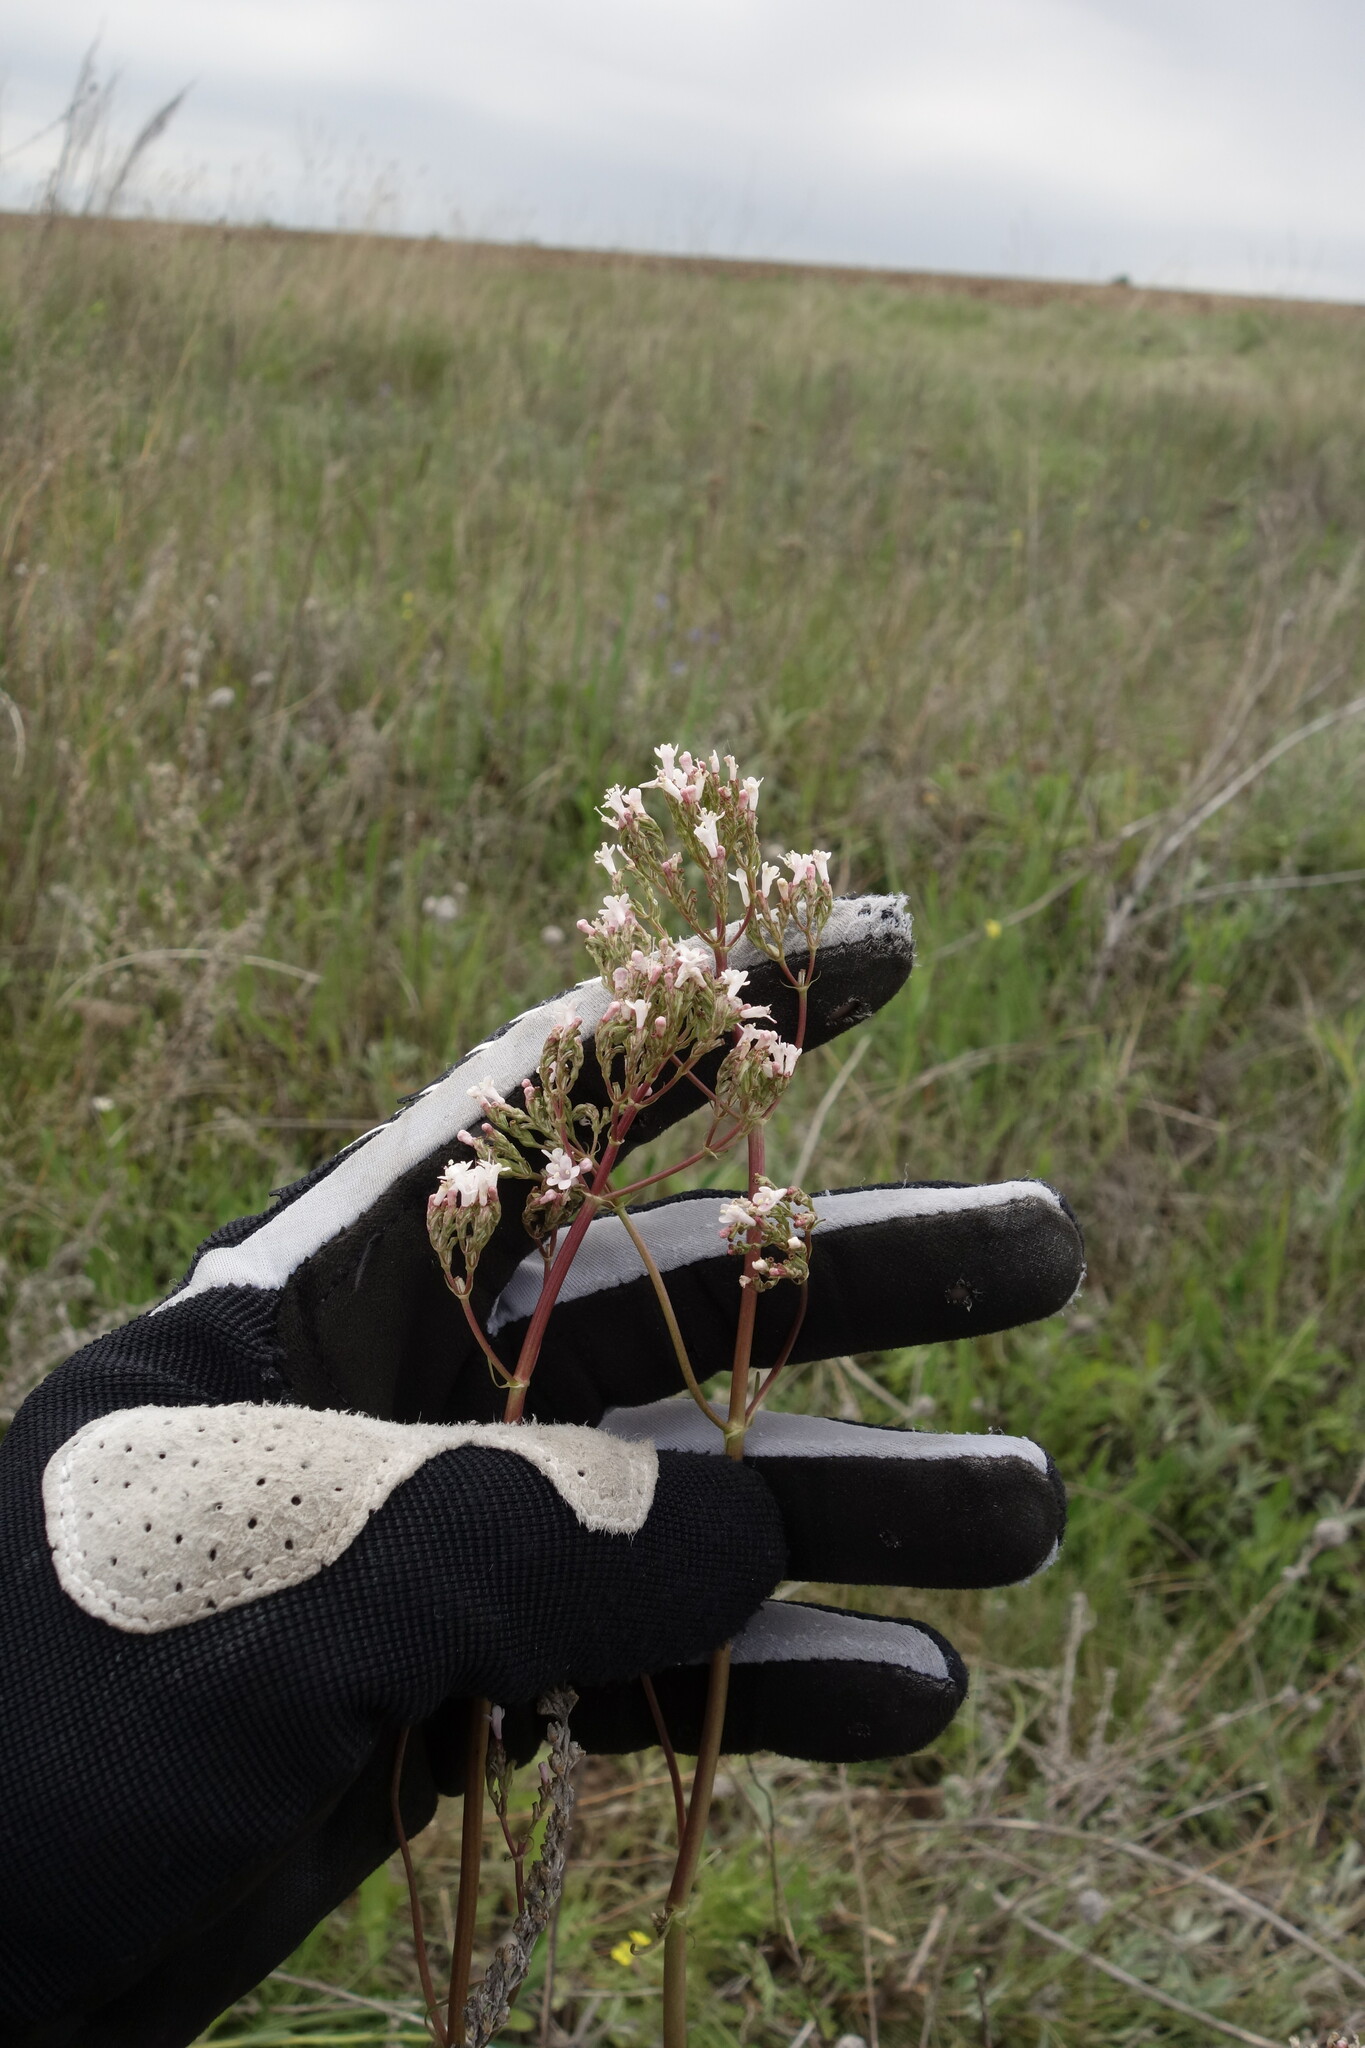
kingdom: Plantae
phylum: Tracheophyta
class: Magnoliopsida
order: Dipsacales
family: Caprifoliaceae
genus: Valeriana
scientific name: Valeriana tuberosa
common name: Tuberous valerian
